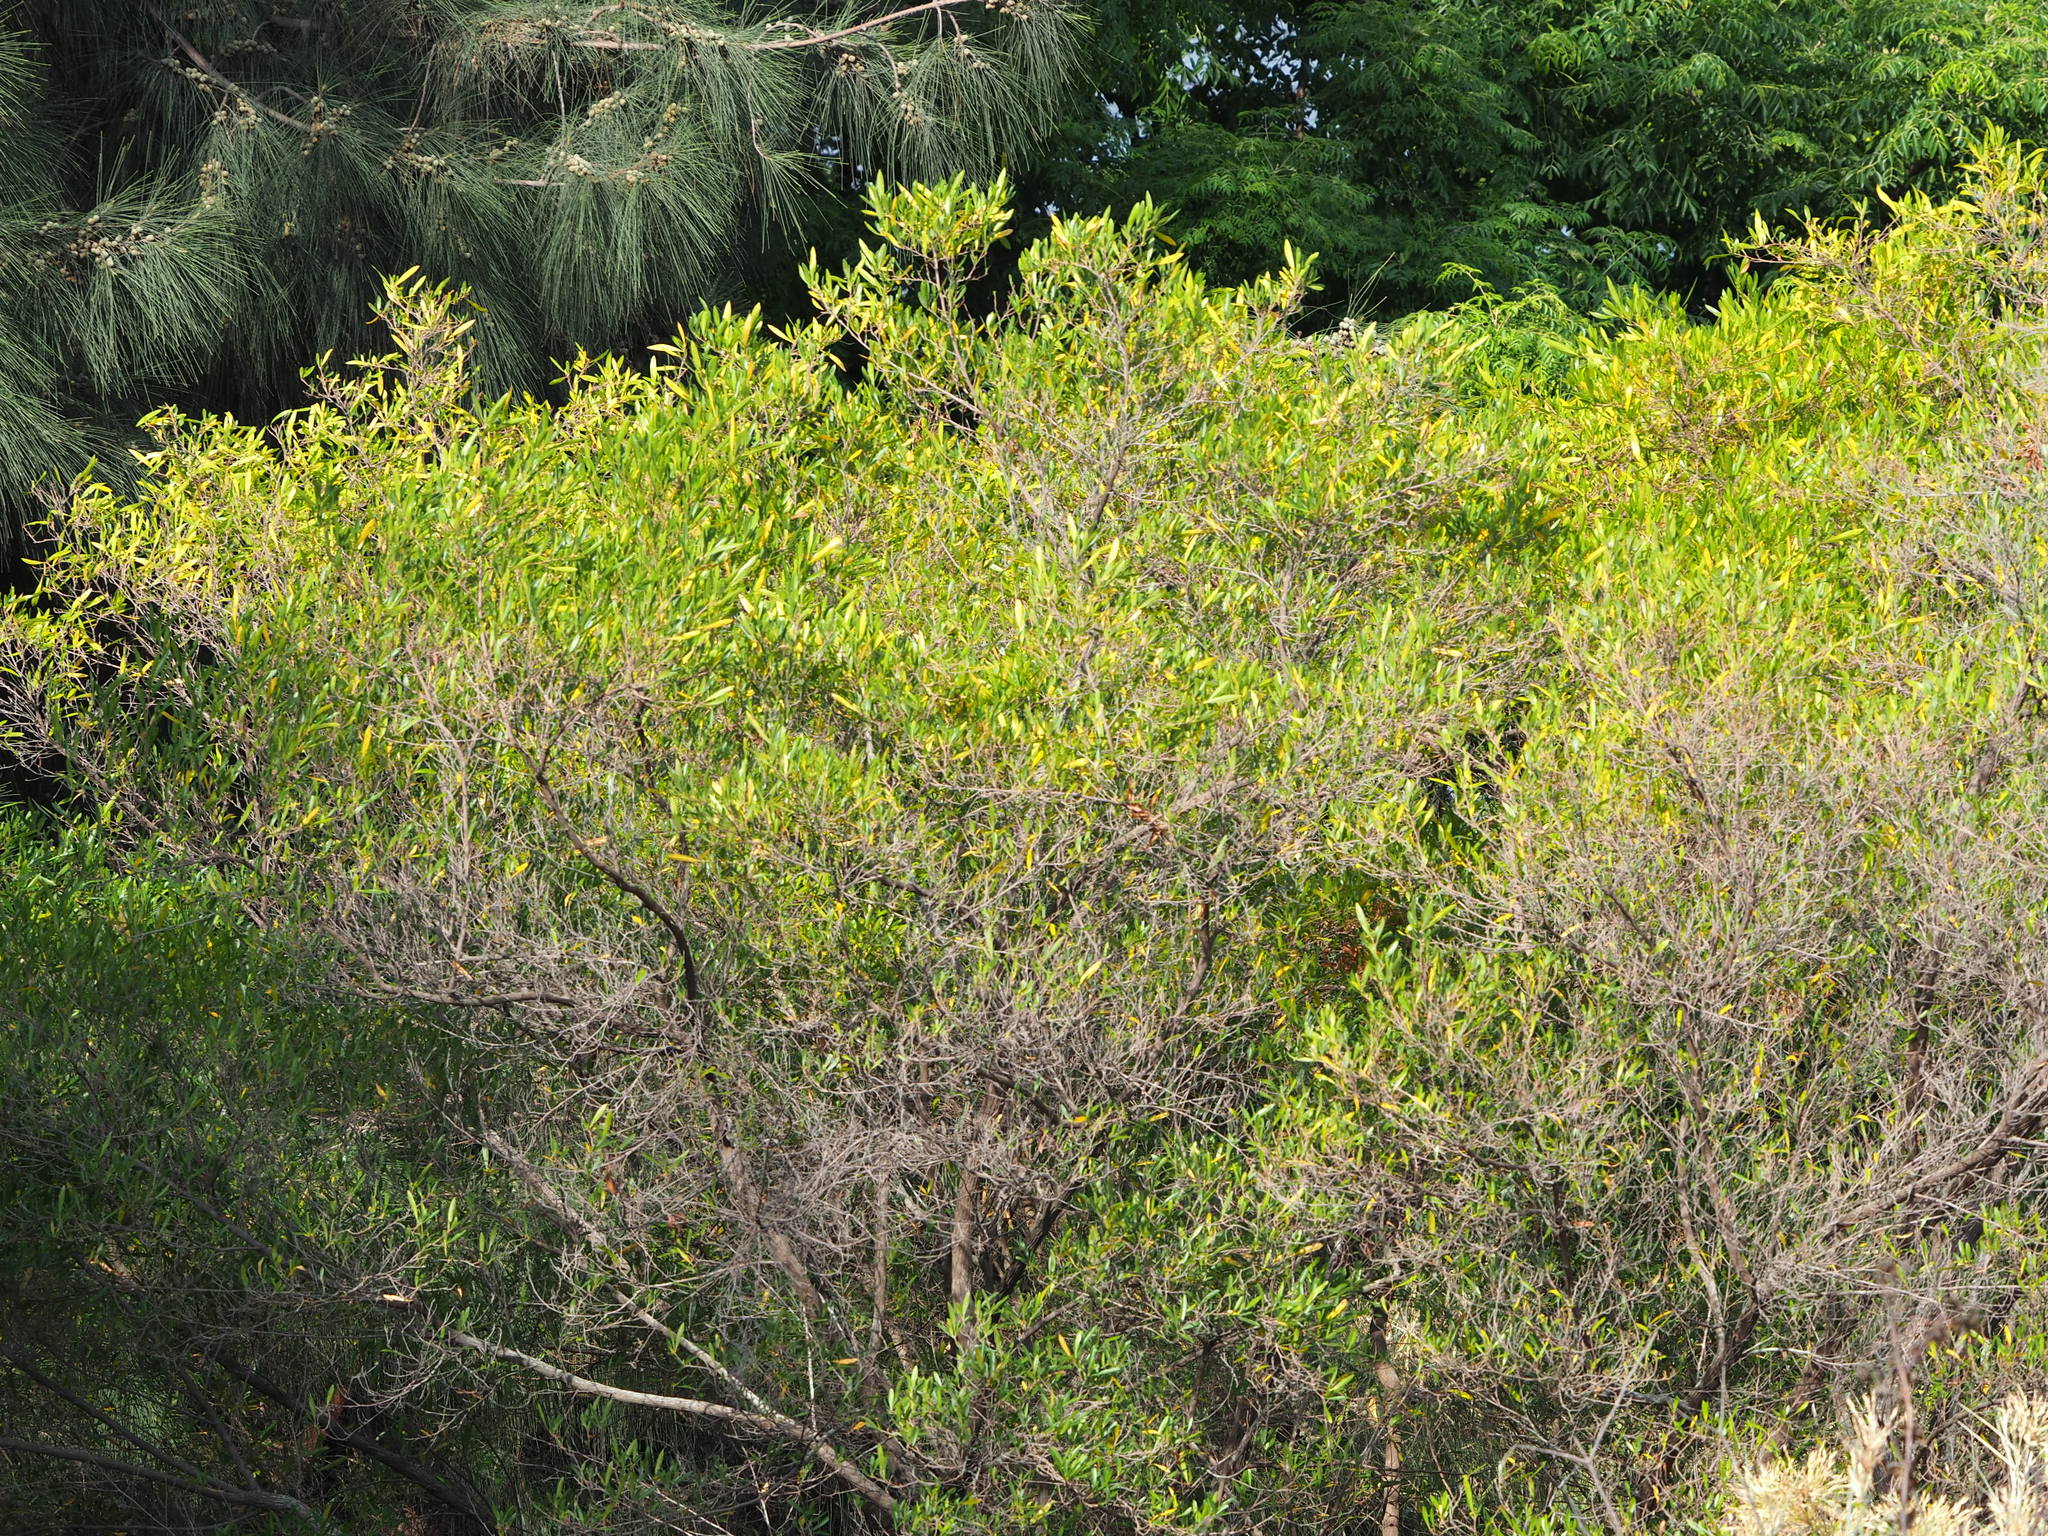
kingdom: Plantae
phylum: Tracheophyta
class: Magnoliopsida
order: Sapindales
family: Sapindaceae
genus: Dodonaea
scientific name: Dodonaea viscosa
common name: Hopbush
